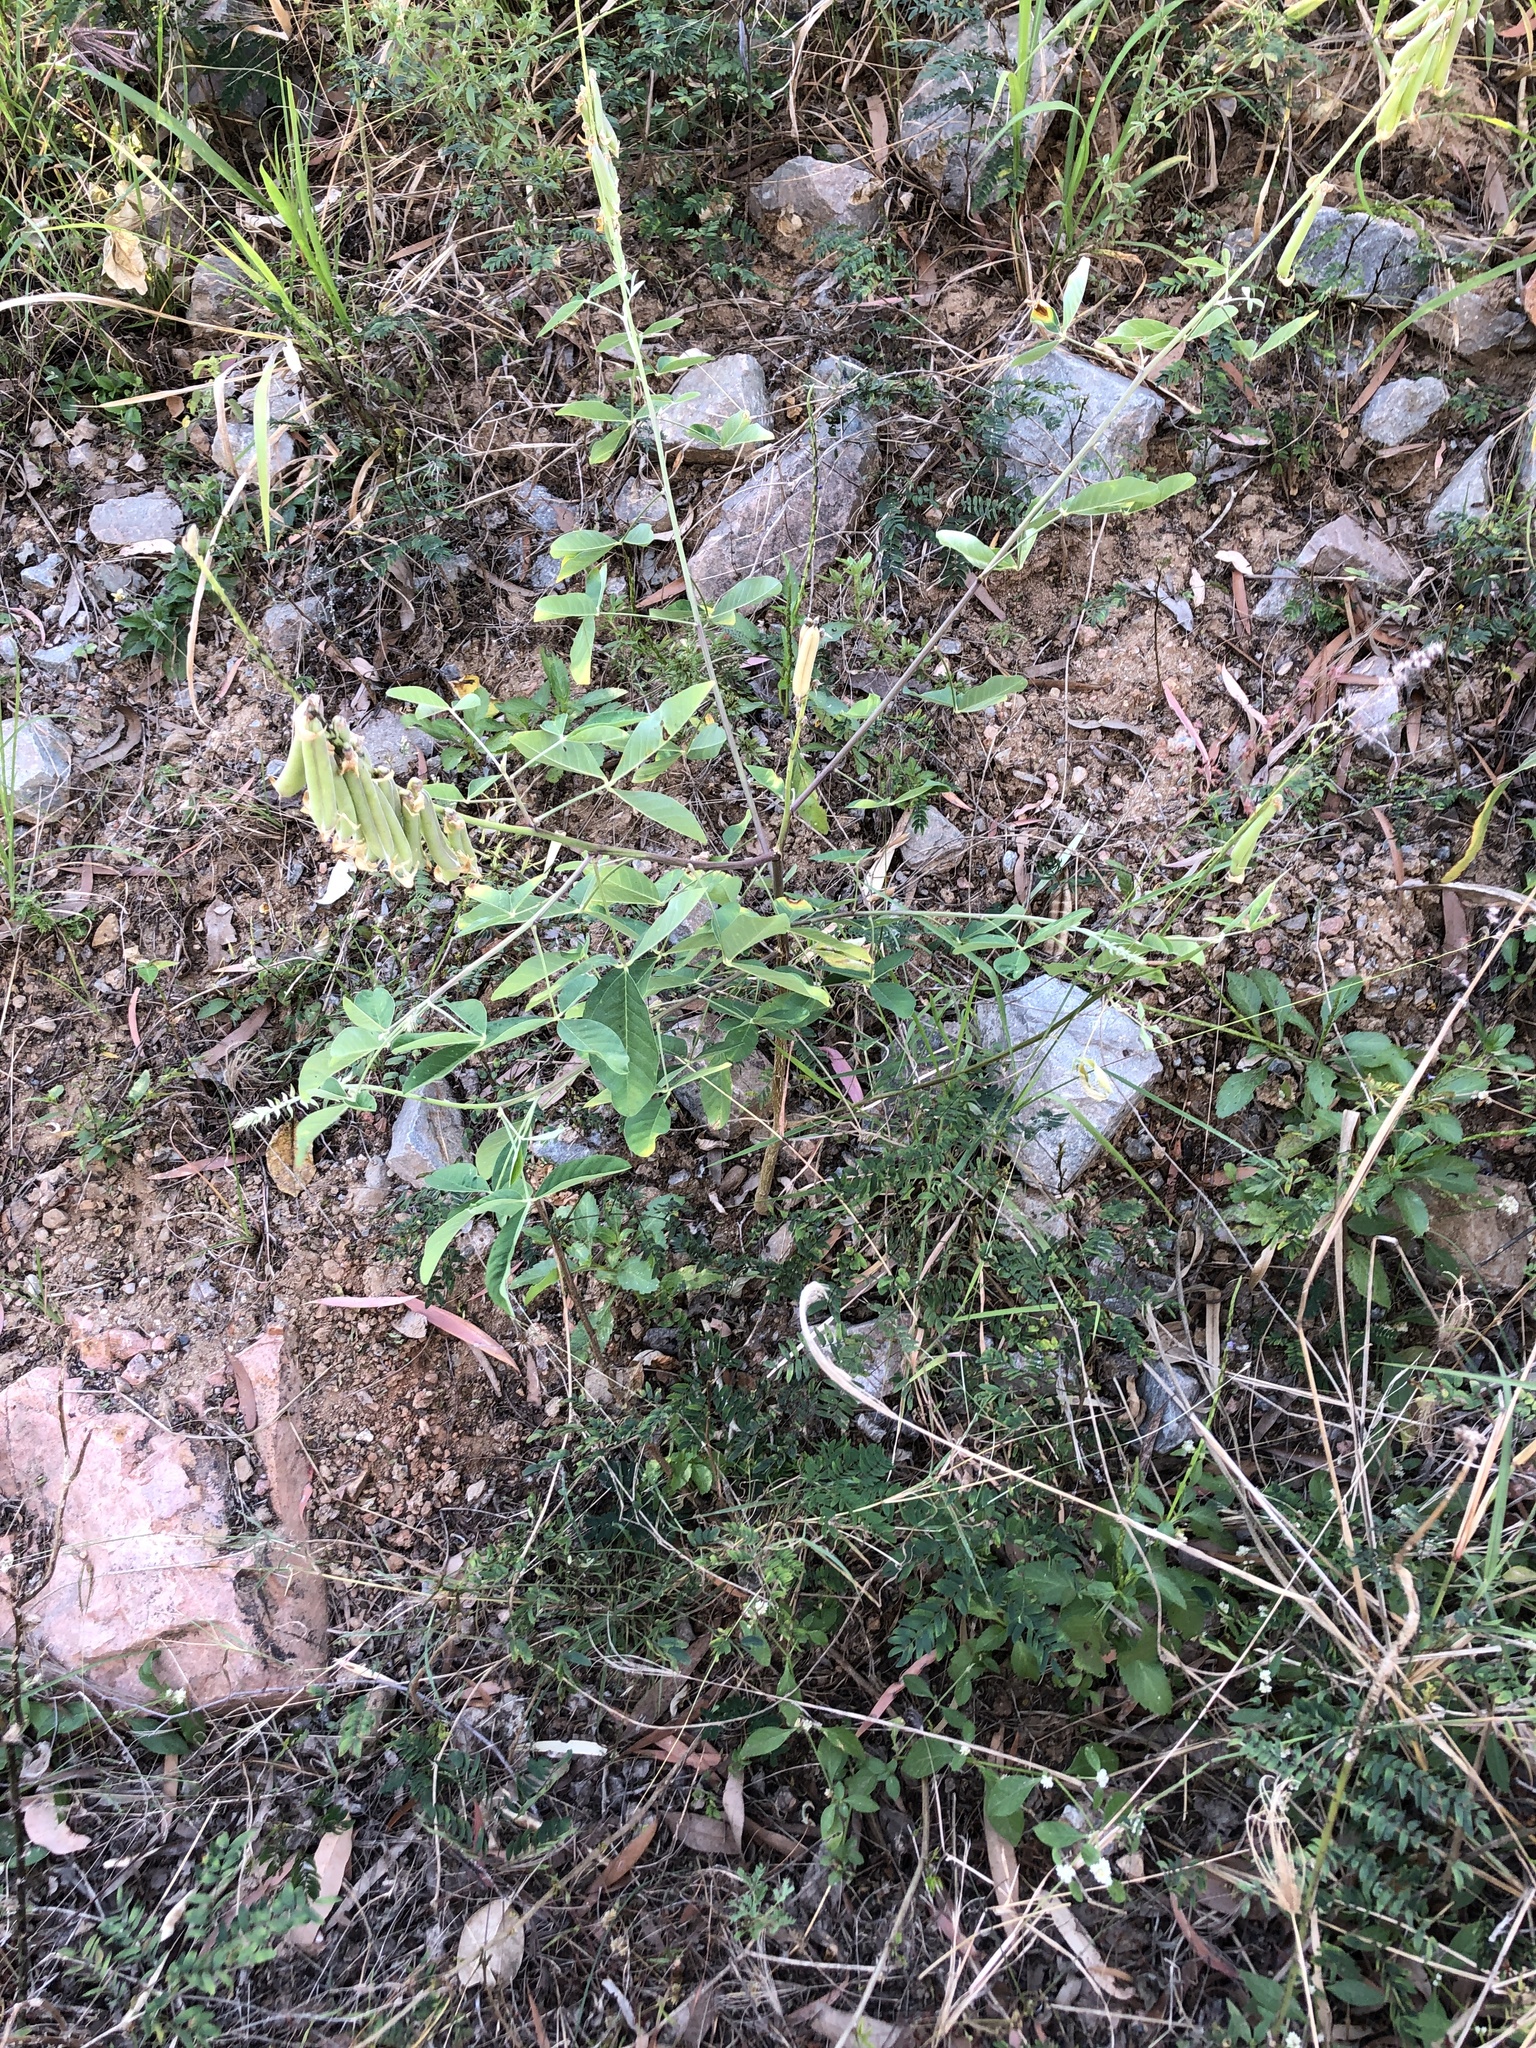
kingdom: Plantae
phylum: Tracheophyta
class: Magnoliopsida
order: Fabales
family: Fabaceae
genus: Crotalaria
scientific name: Crotalaria pallida
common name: Smooth rattlebox
